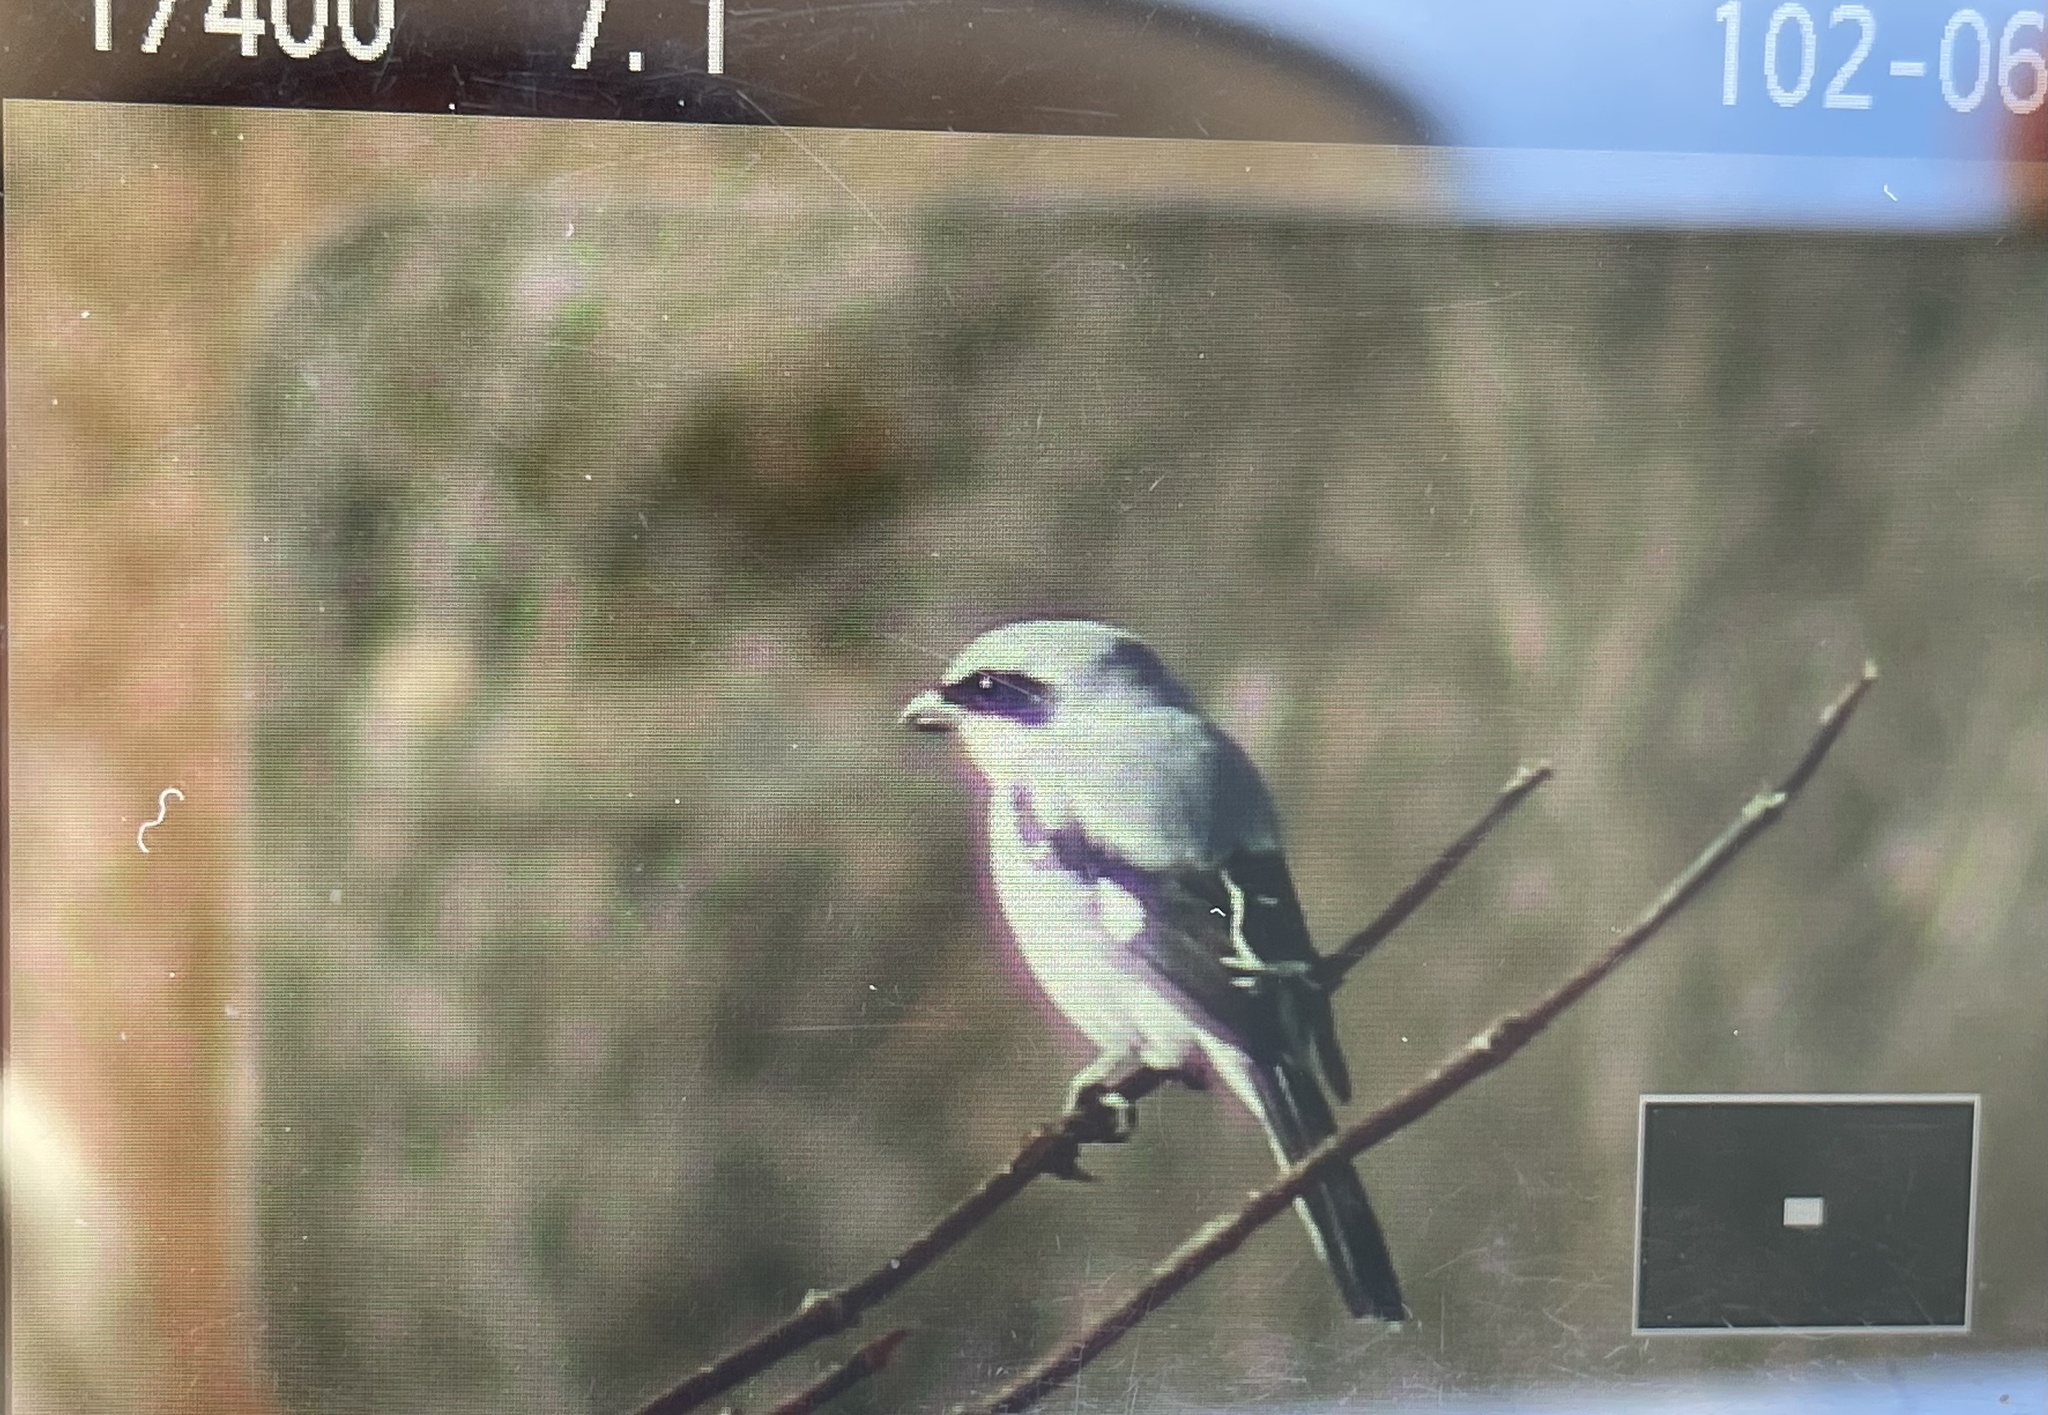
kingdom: Animalia
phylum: Chordata
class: Aves
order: Passeriformes
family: Laniidae
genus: Lanius
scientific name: Lanius ludovicianus
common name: Loggerhead shrike
